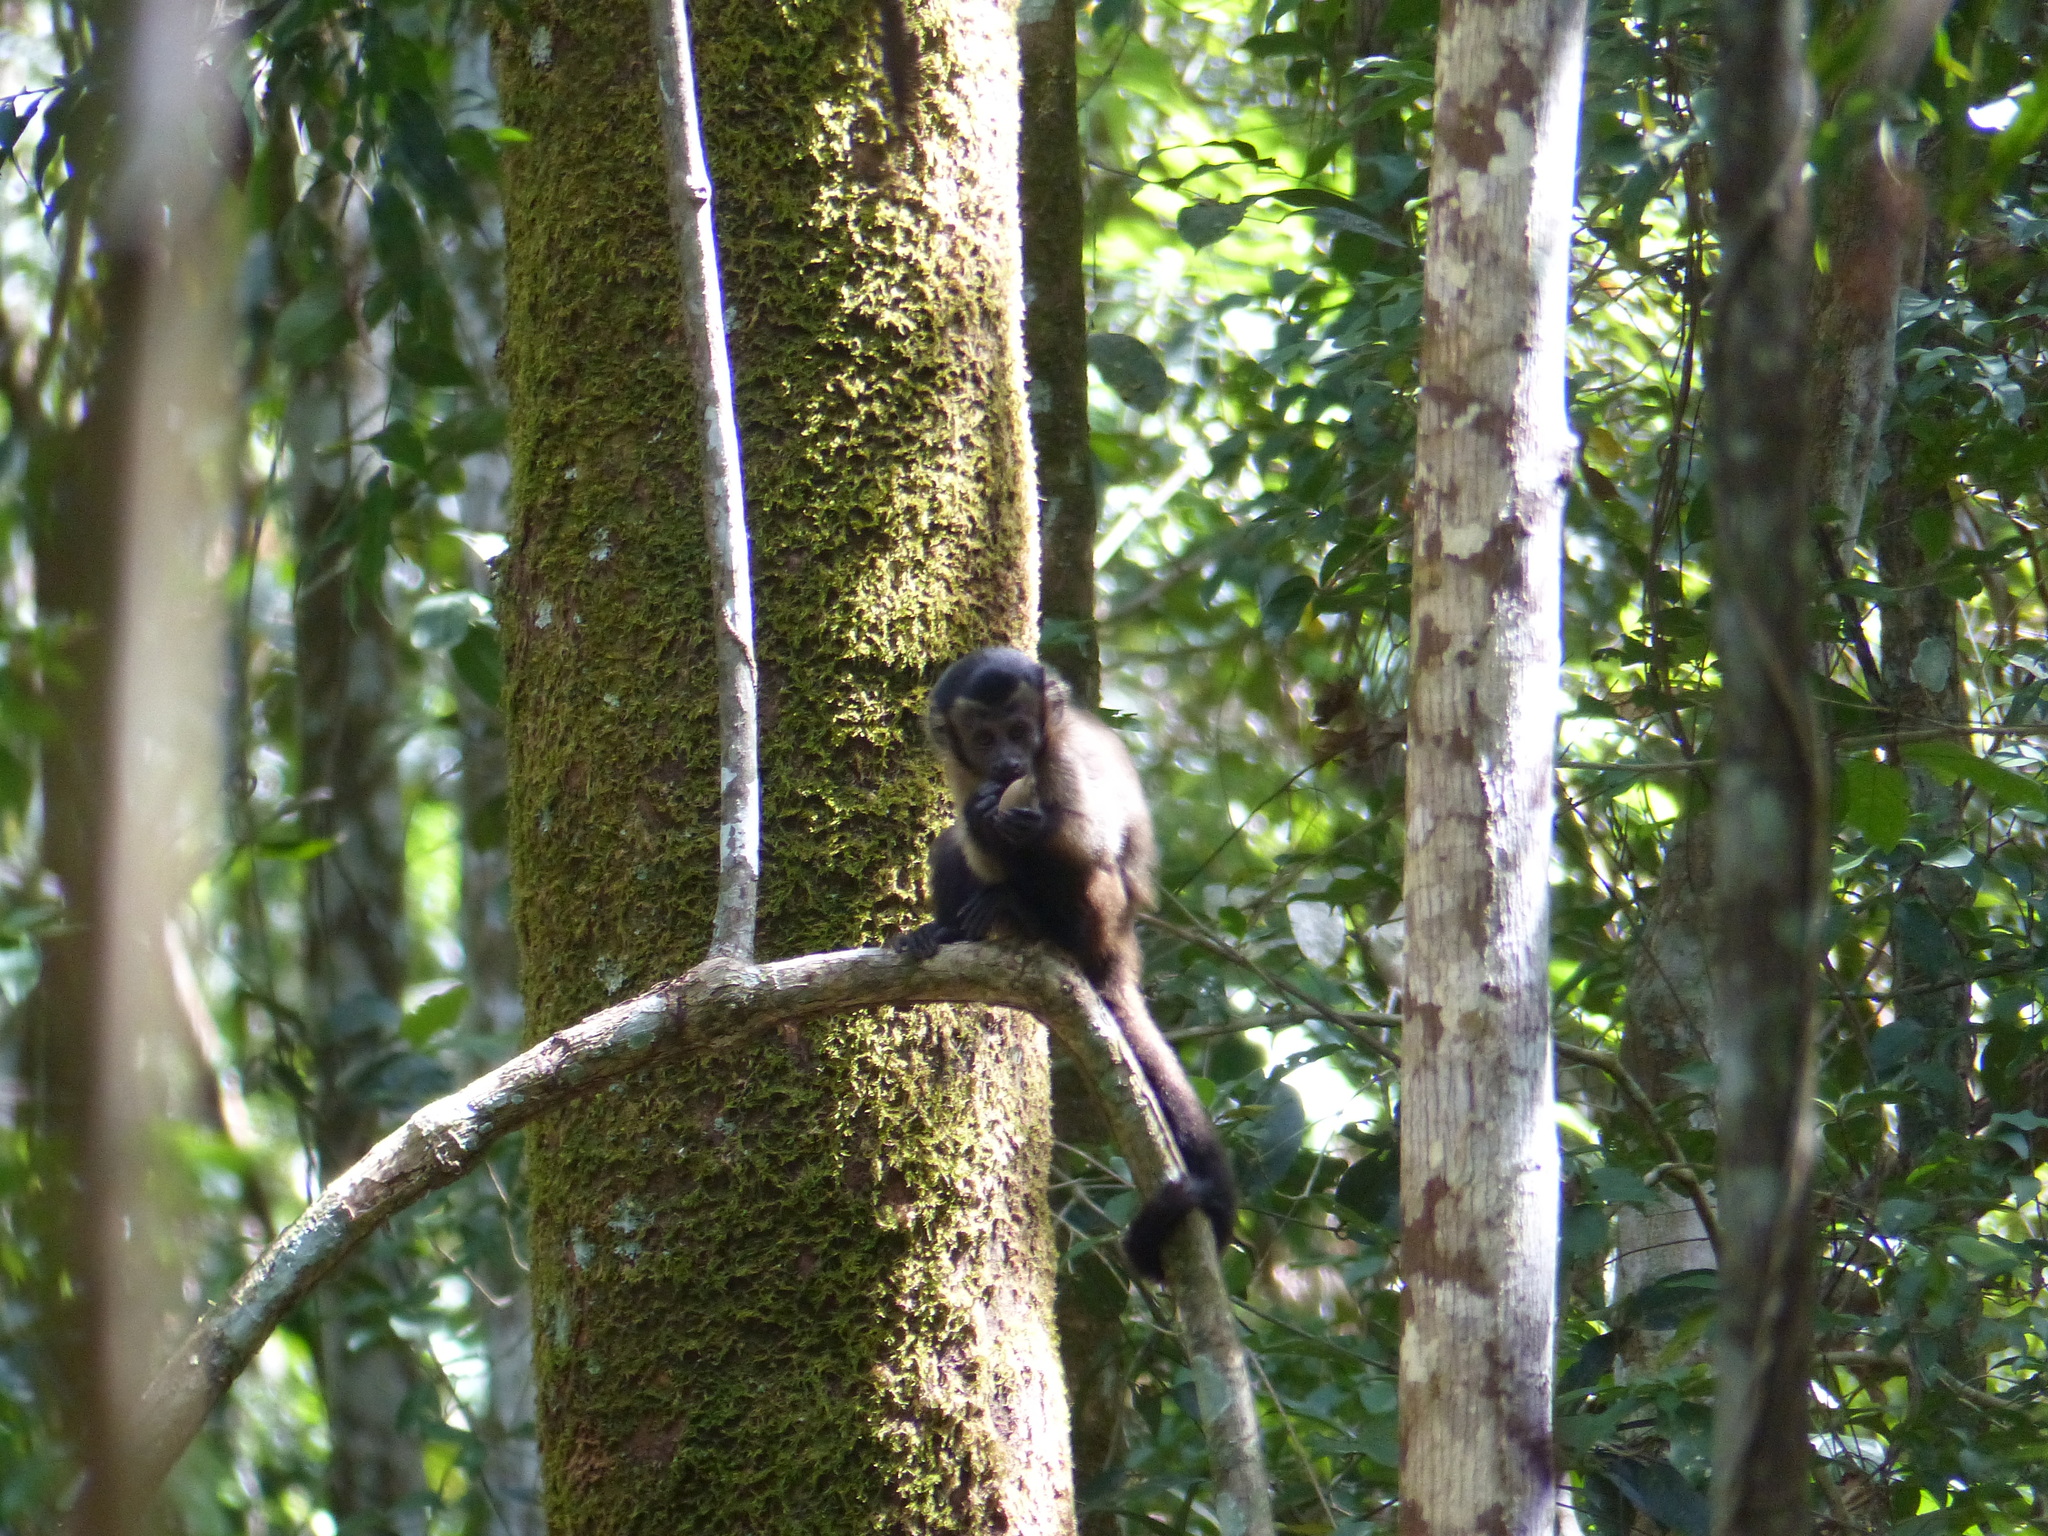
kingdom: Animalia
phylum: Chordata
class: Mammalia
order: Primates
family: Cebidae
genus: Sapajus
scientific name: Sapajus apella
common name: Tufted capuchin
